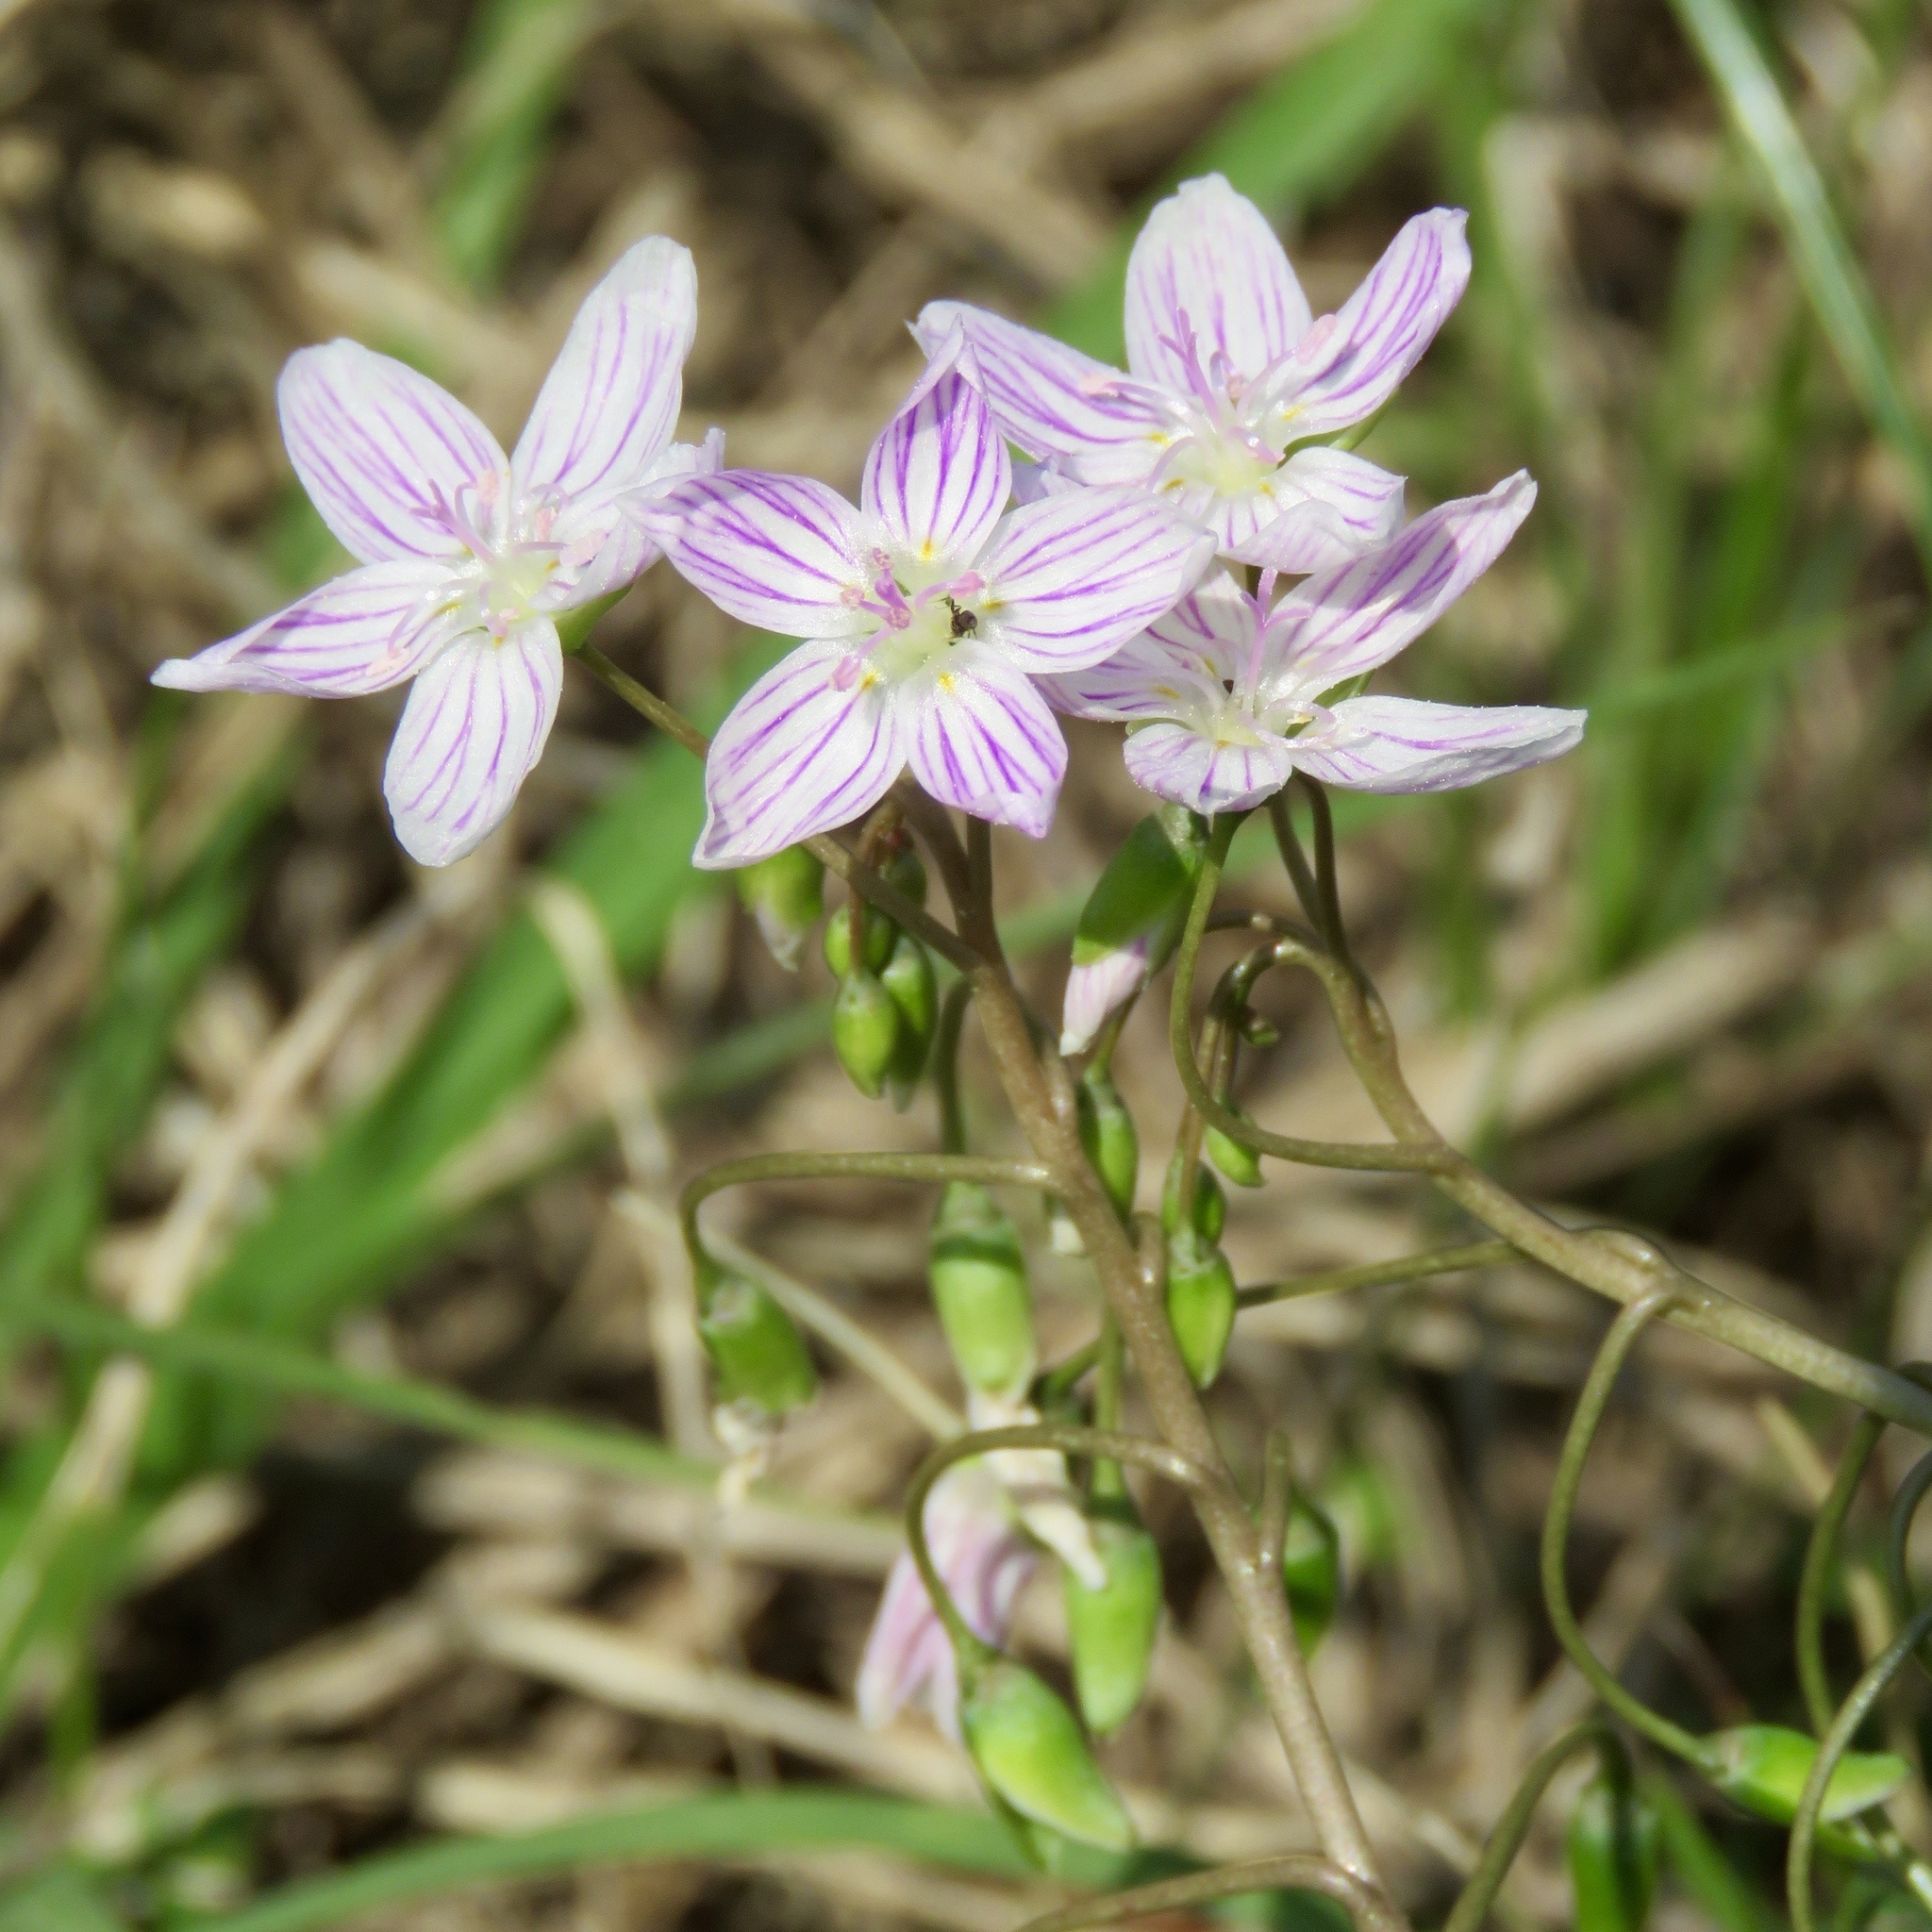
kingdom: Plantae
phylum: Tracheophyta
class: Magnoliopsida
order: Caryophyllales
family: Montiaceae
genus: Claytonia
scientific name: Claytonia virginica
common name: Virginia springbeauty
